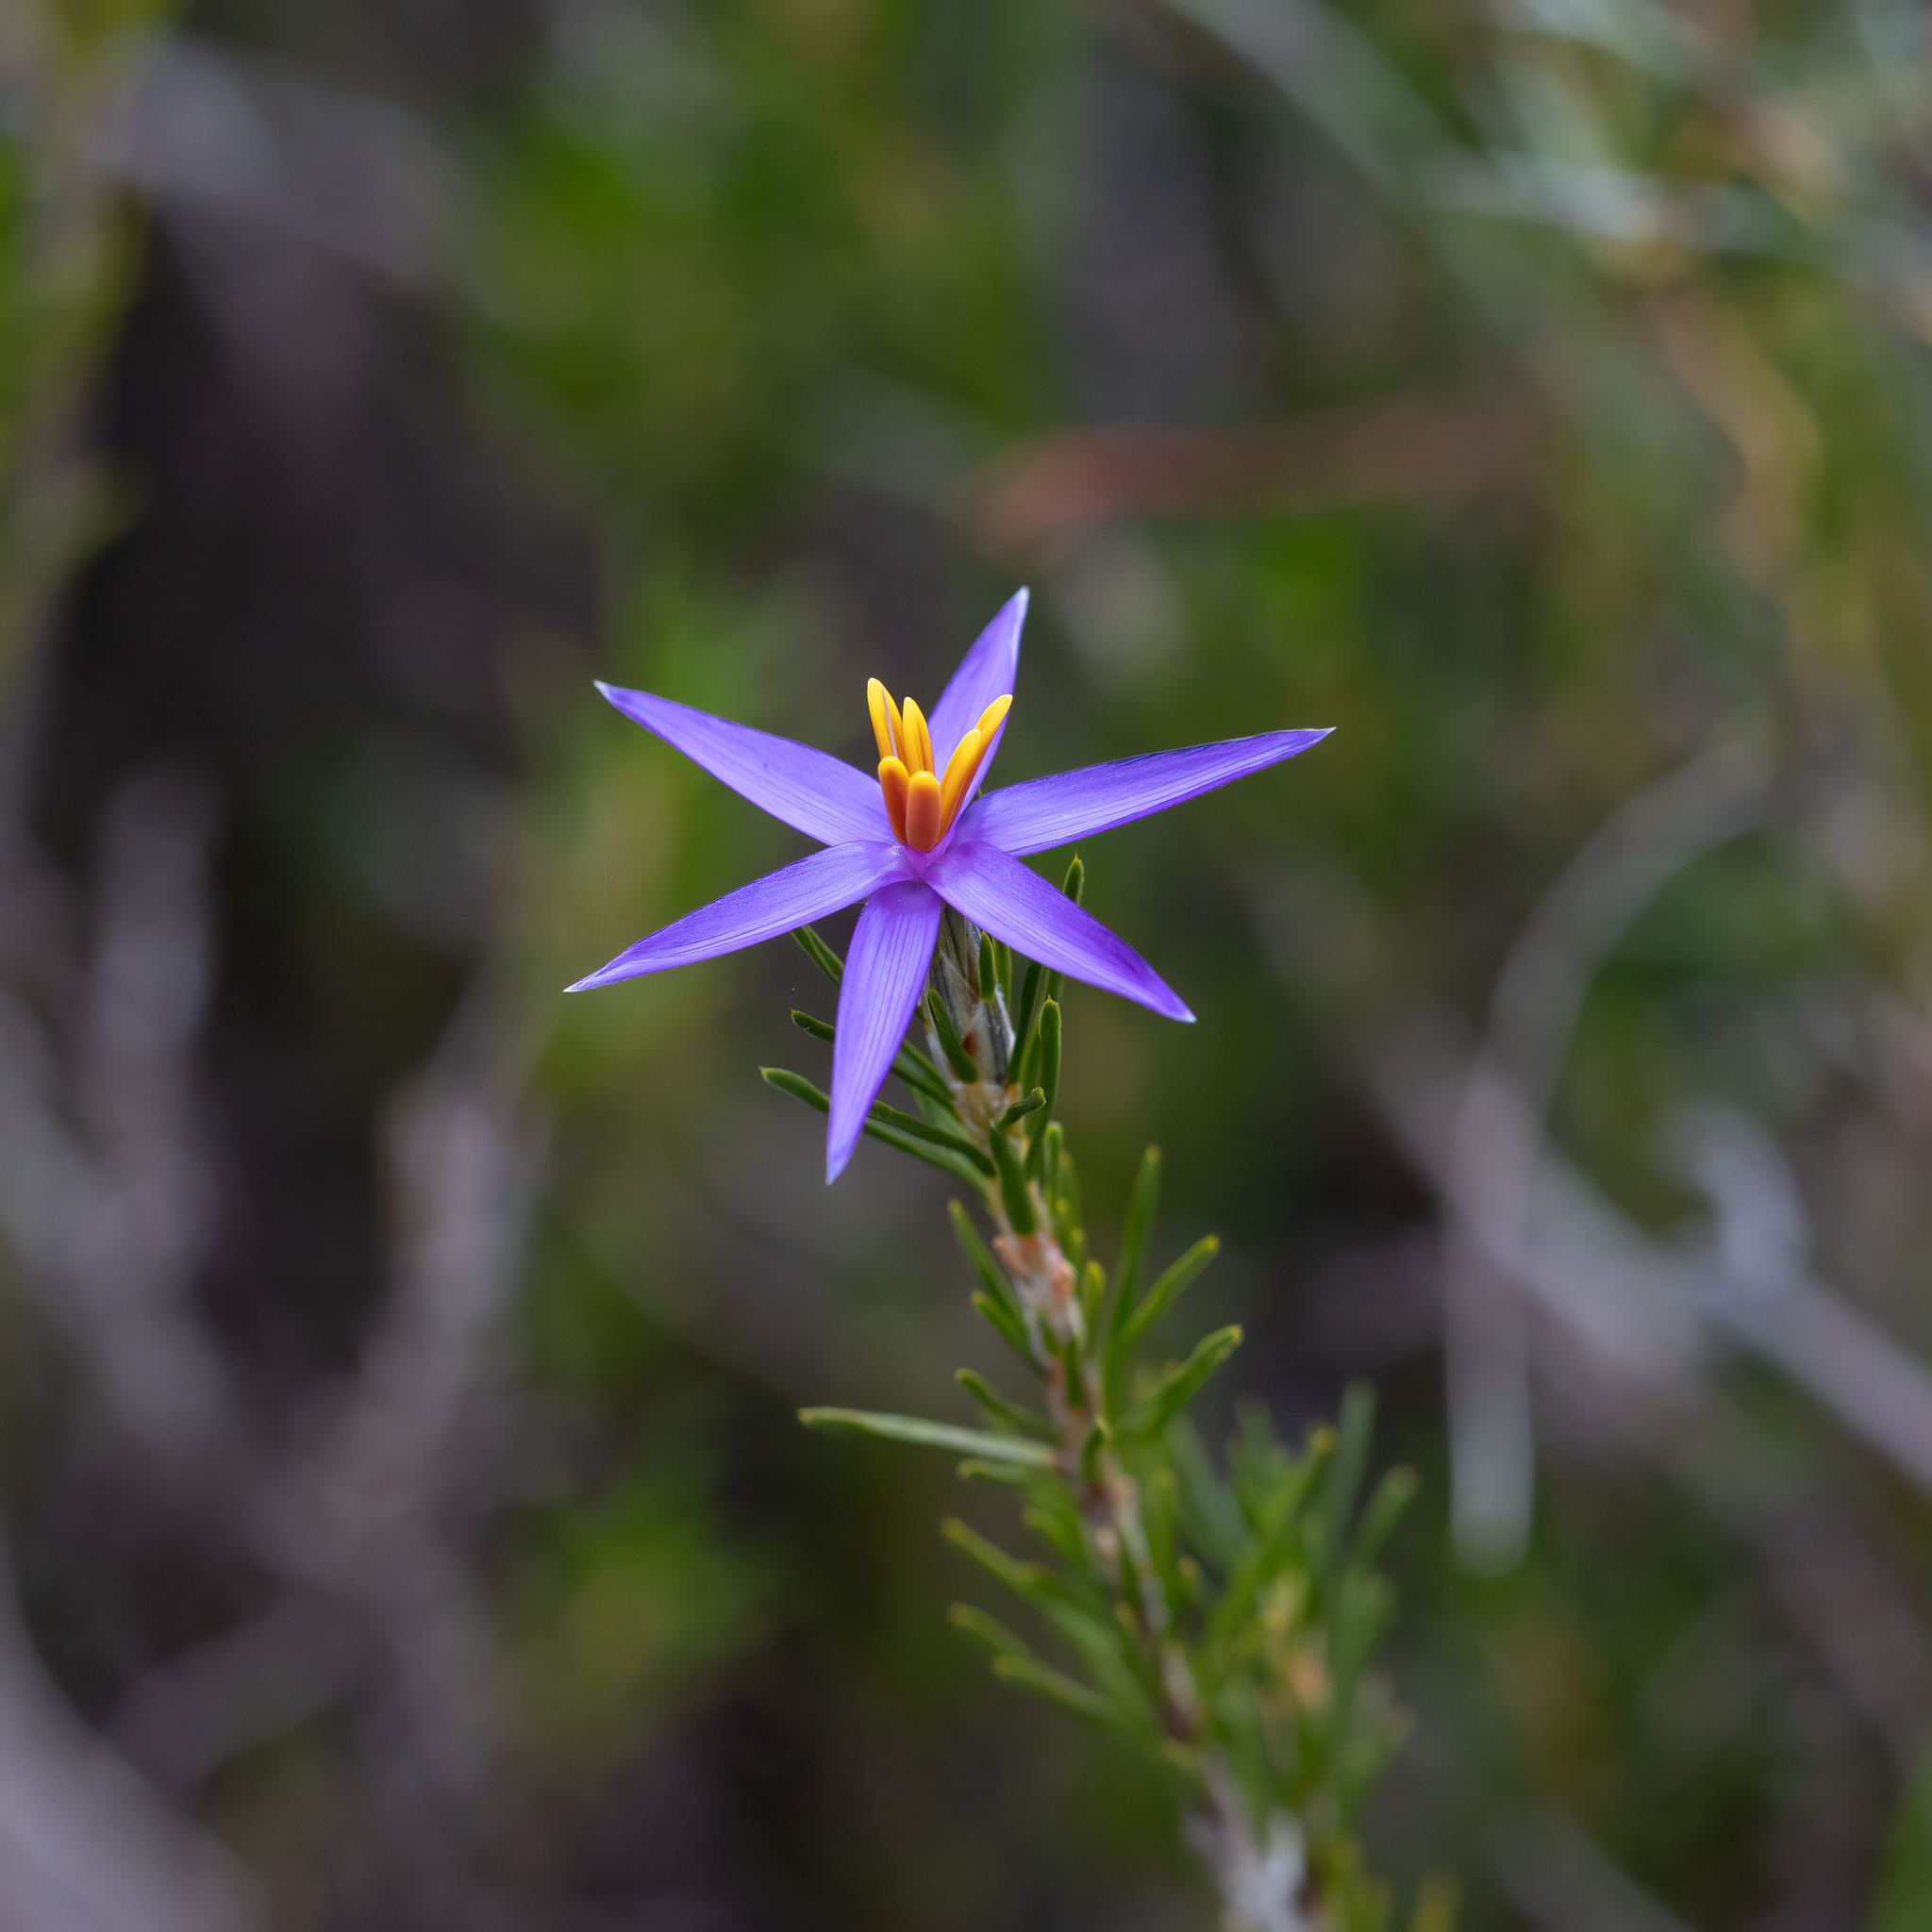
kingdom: Plantae
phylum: Tracheophyta
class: Liliopsida
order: Arecales
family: Dasypogonaceae
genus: Calectasia
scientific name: Calectasia intermedia
